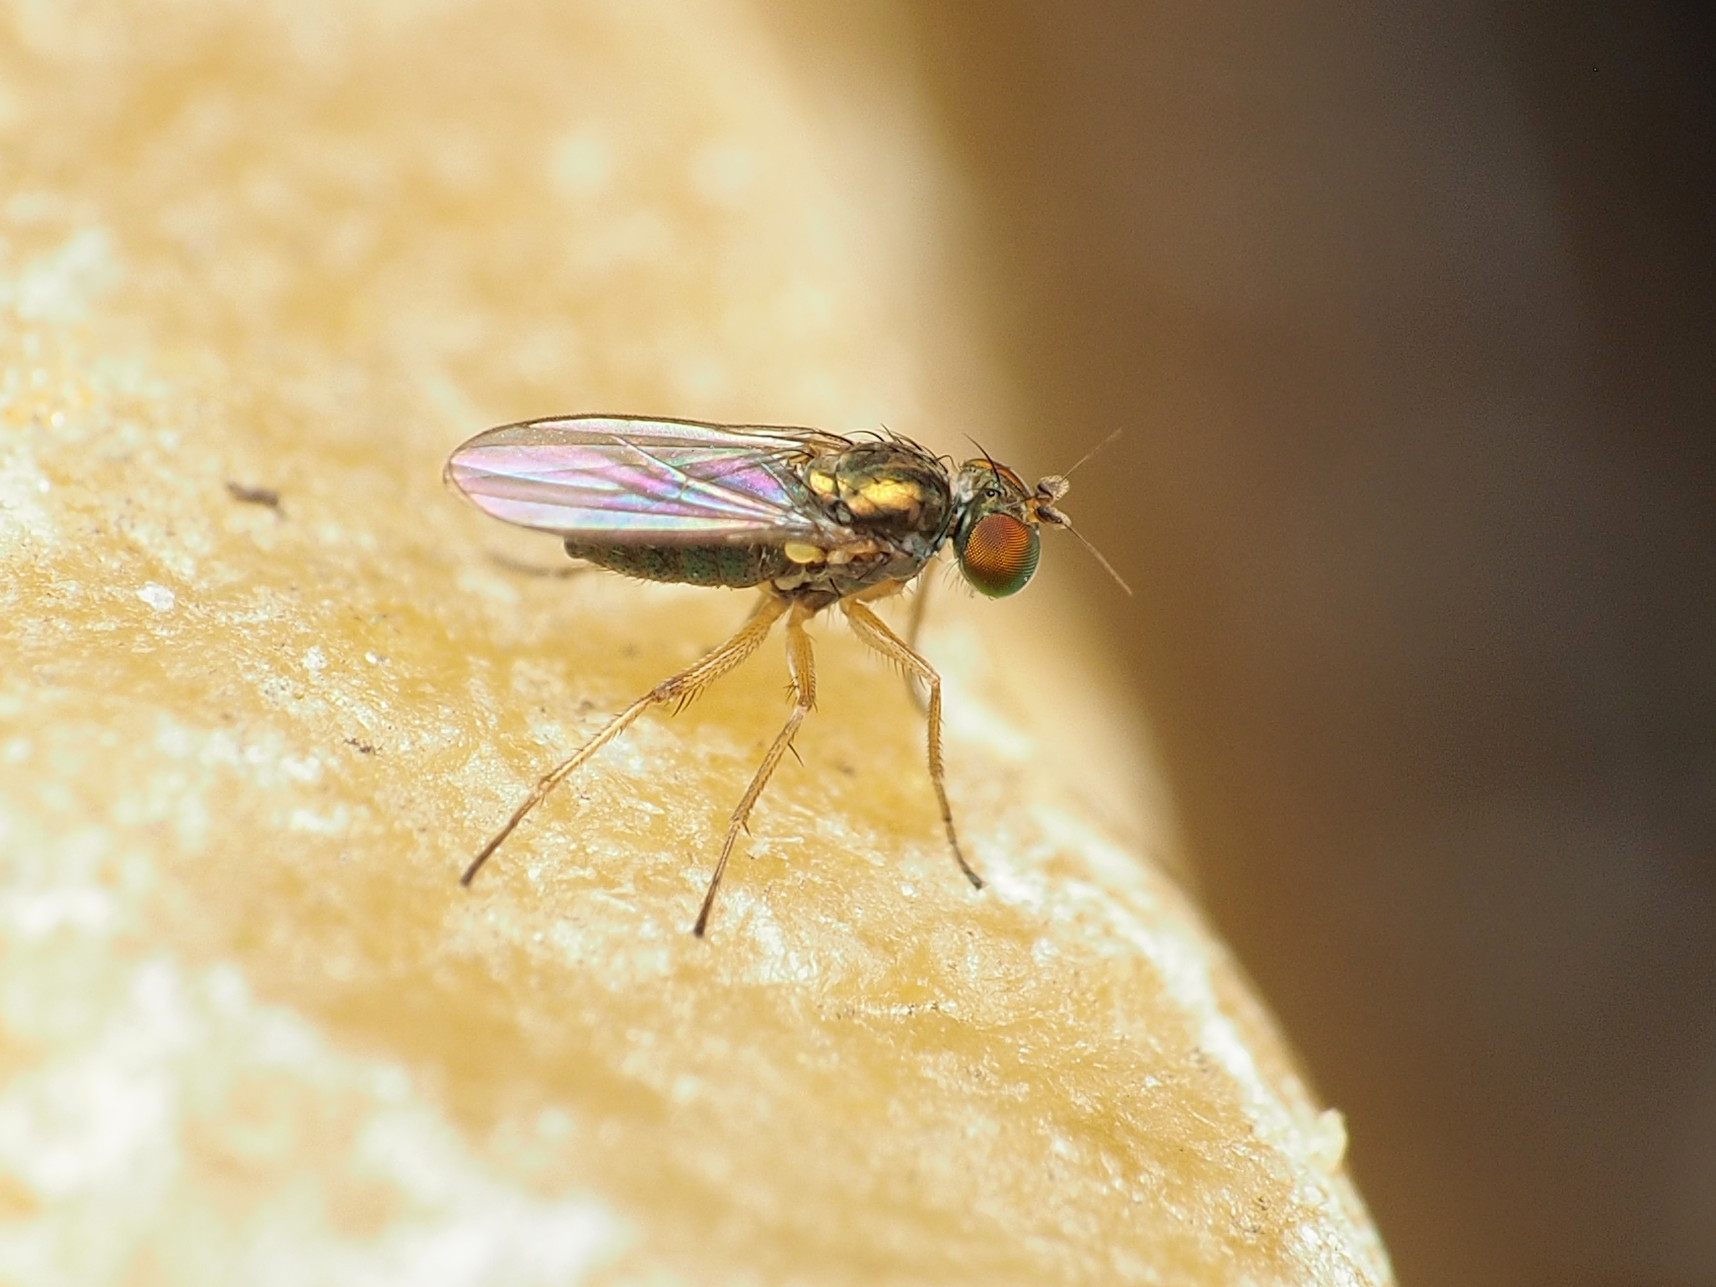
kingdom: Animalia
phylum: Arthropoda
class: Insecta
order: Diptera
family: Dolichopodidae
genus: Chrysotus
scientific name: Chrysotus picticornis
